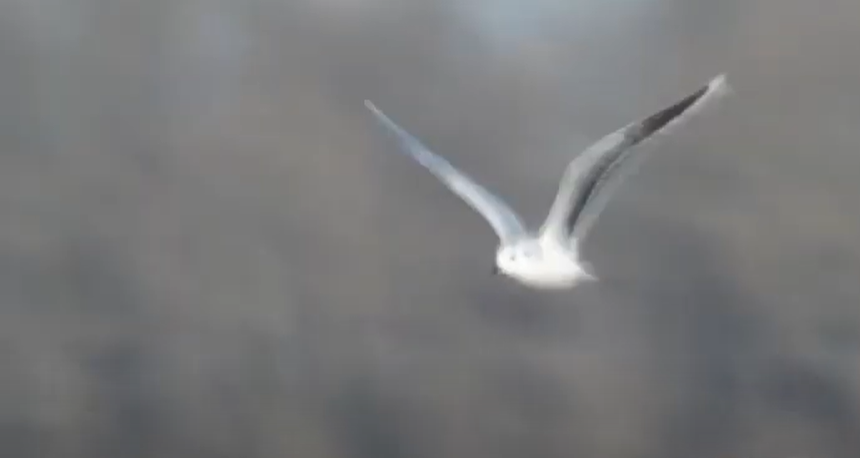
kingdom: Animalia
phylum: Chordata
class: Aves
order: Charadriiformes
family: Laridae
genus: Hydrocoloeus
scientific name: Hydrocoloeus minutus
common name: Little gull
